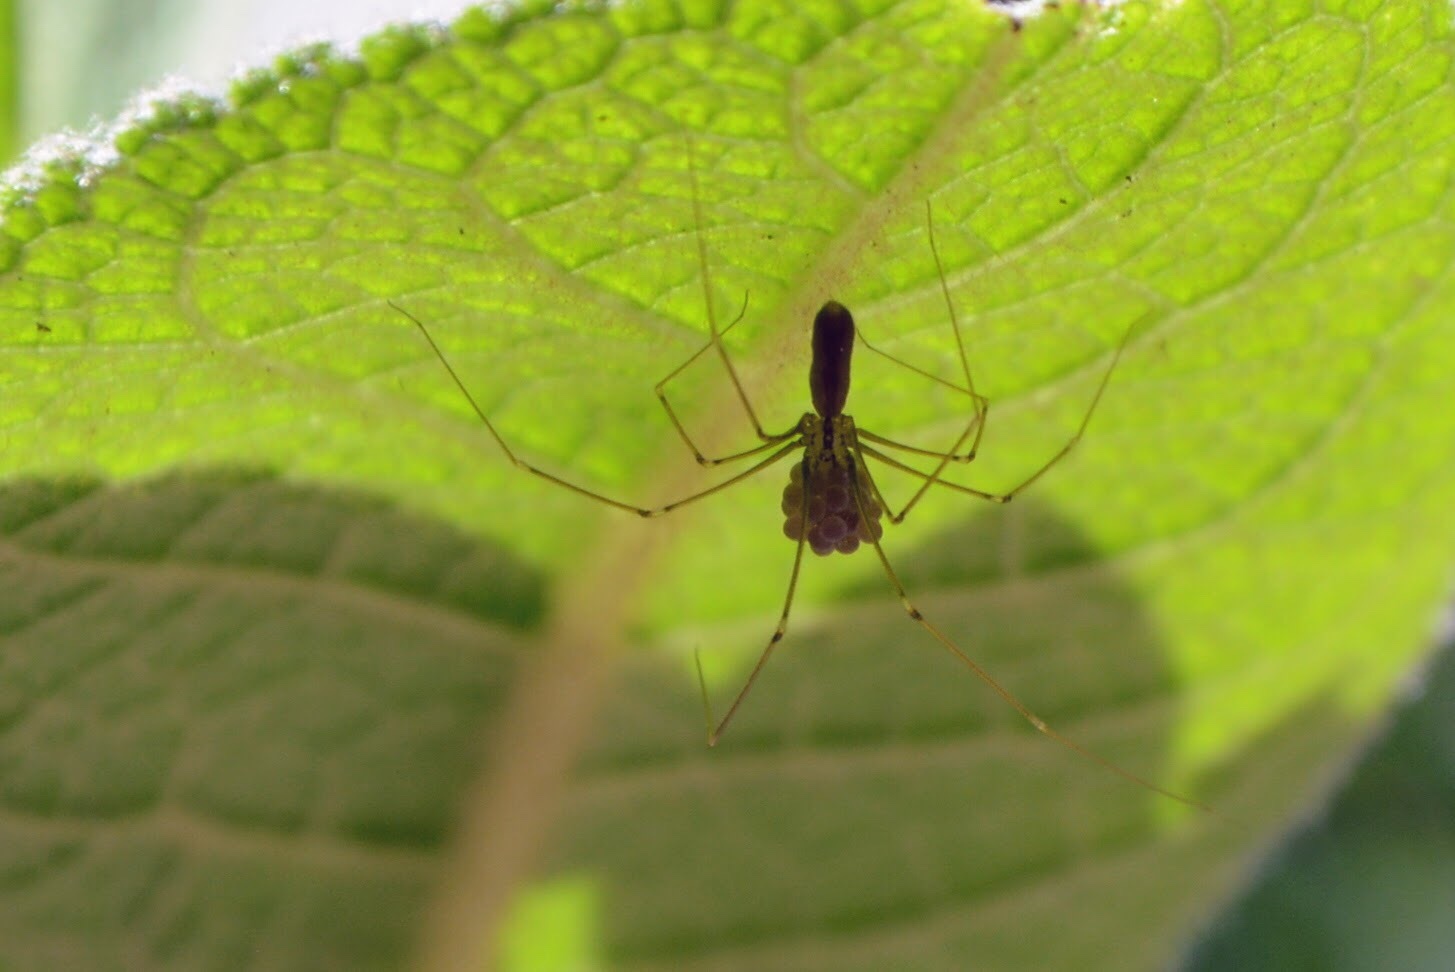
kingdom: Animalia
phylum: Arthropoda
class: Arachnida
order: Araneae
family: Pholcidae
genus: Pholcus
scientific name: Pholcus phalangioides
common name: Longbodied cellar spider
